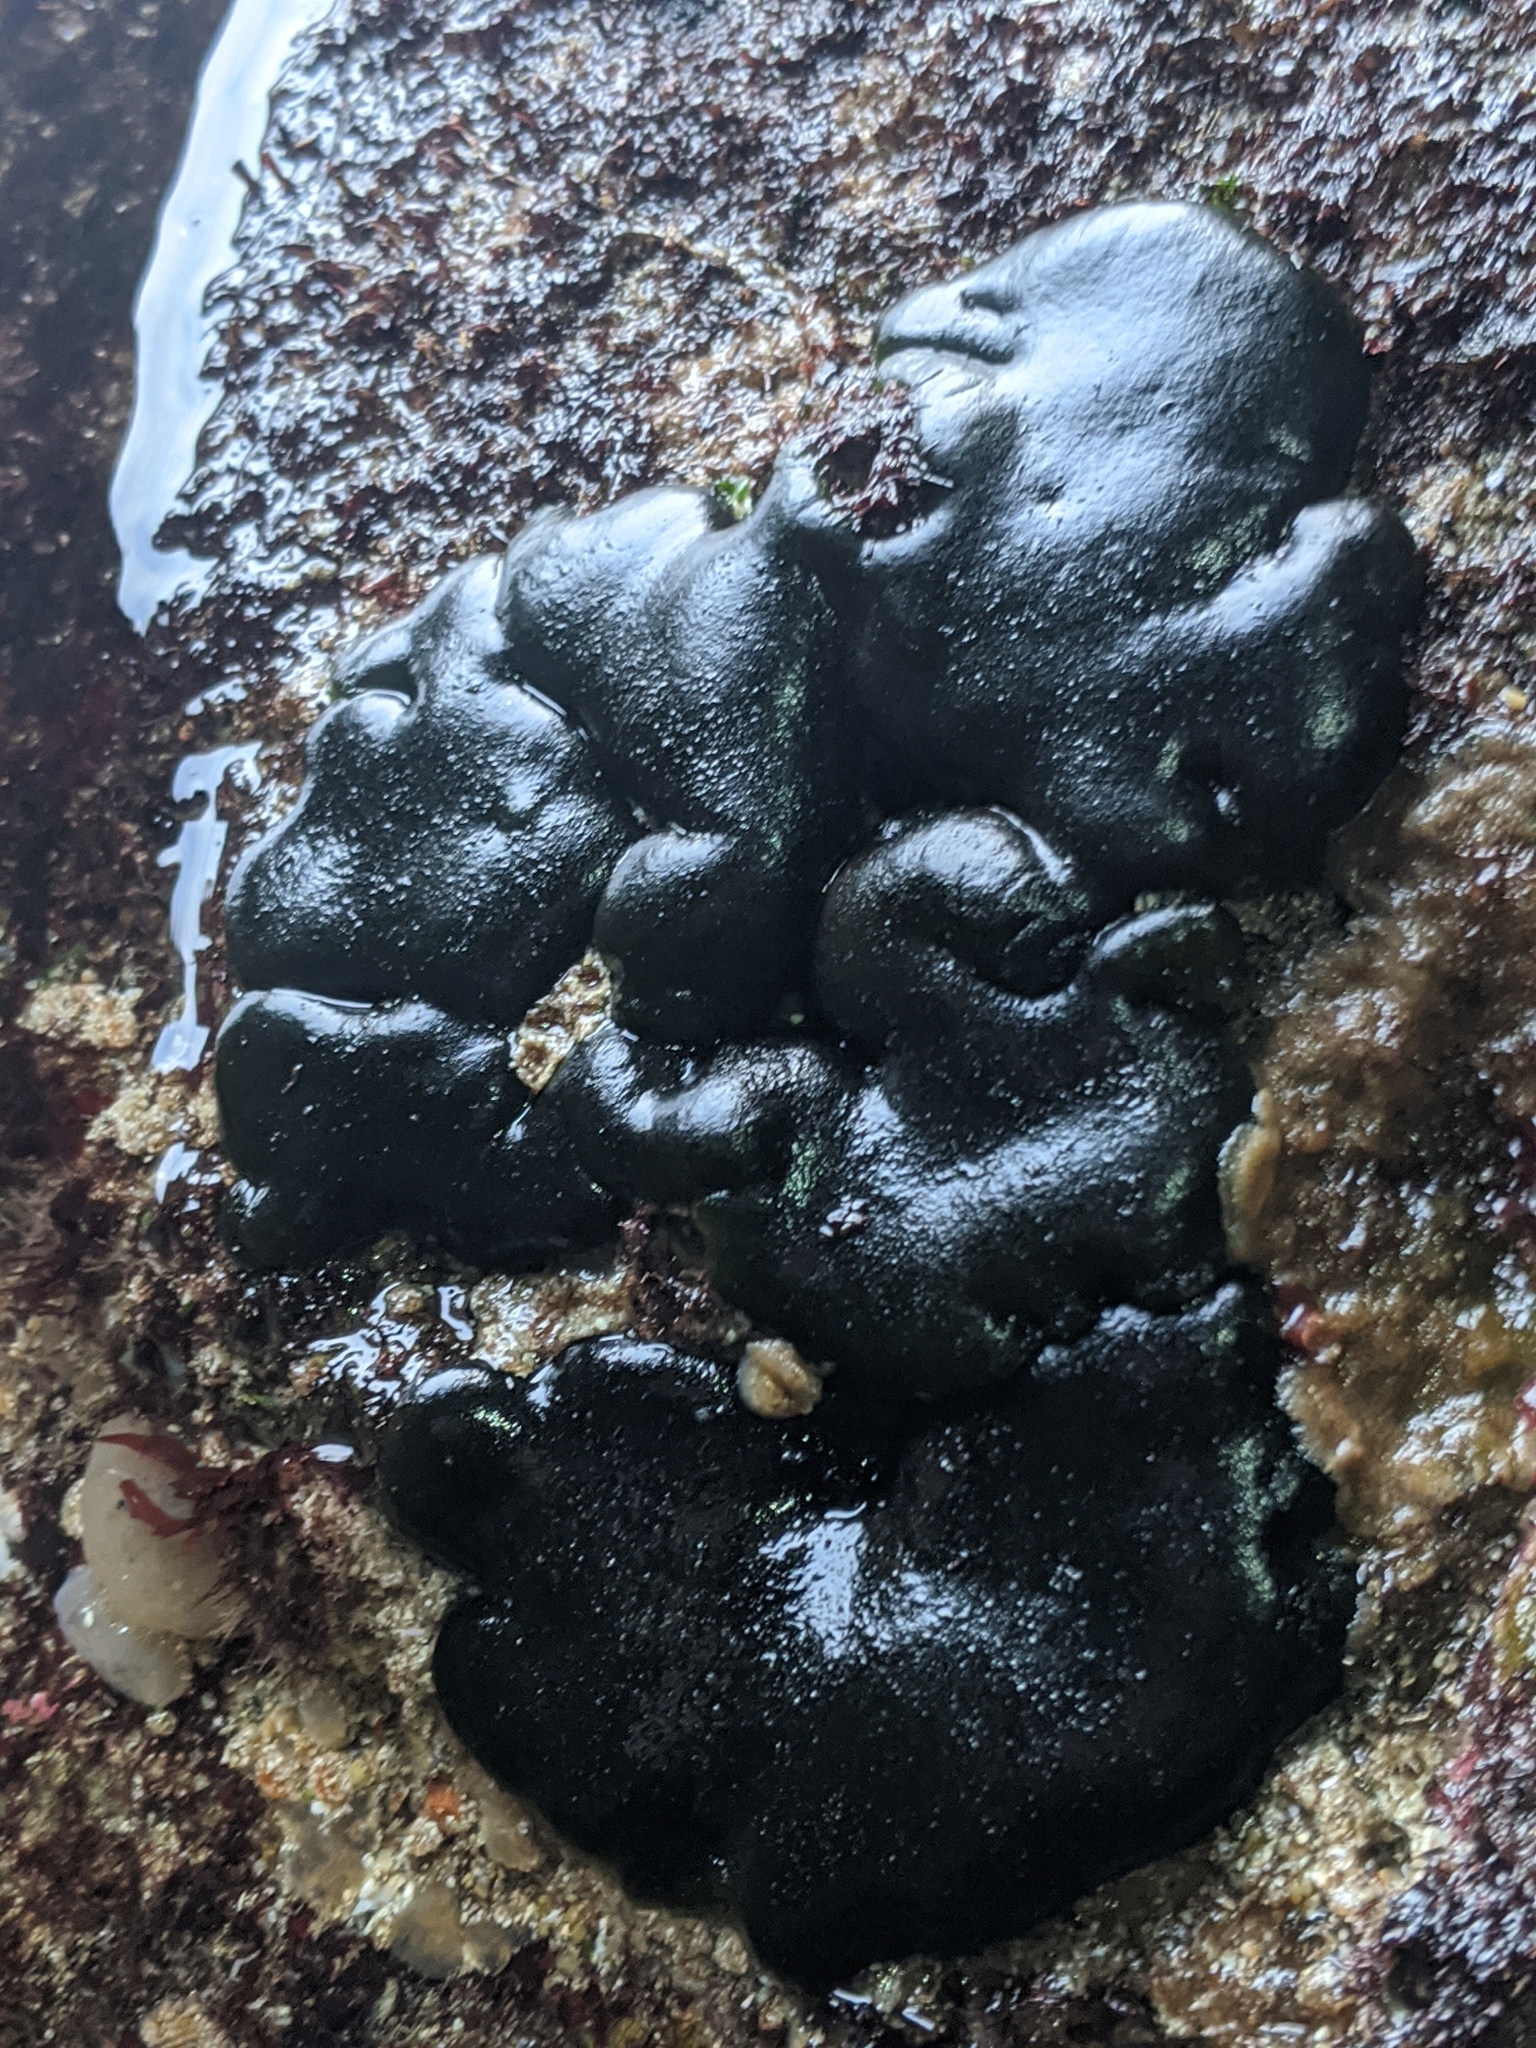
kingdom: Plantae
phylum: Chlorophyta
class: Ulvophyceae
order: Bryopsidales
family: Codiaceae
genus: Codium
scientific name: Codium setchellii
